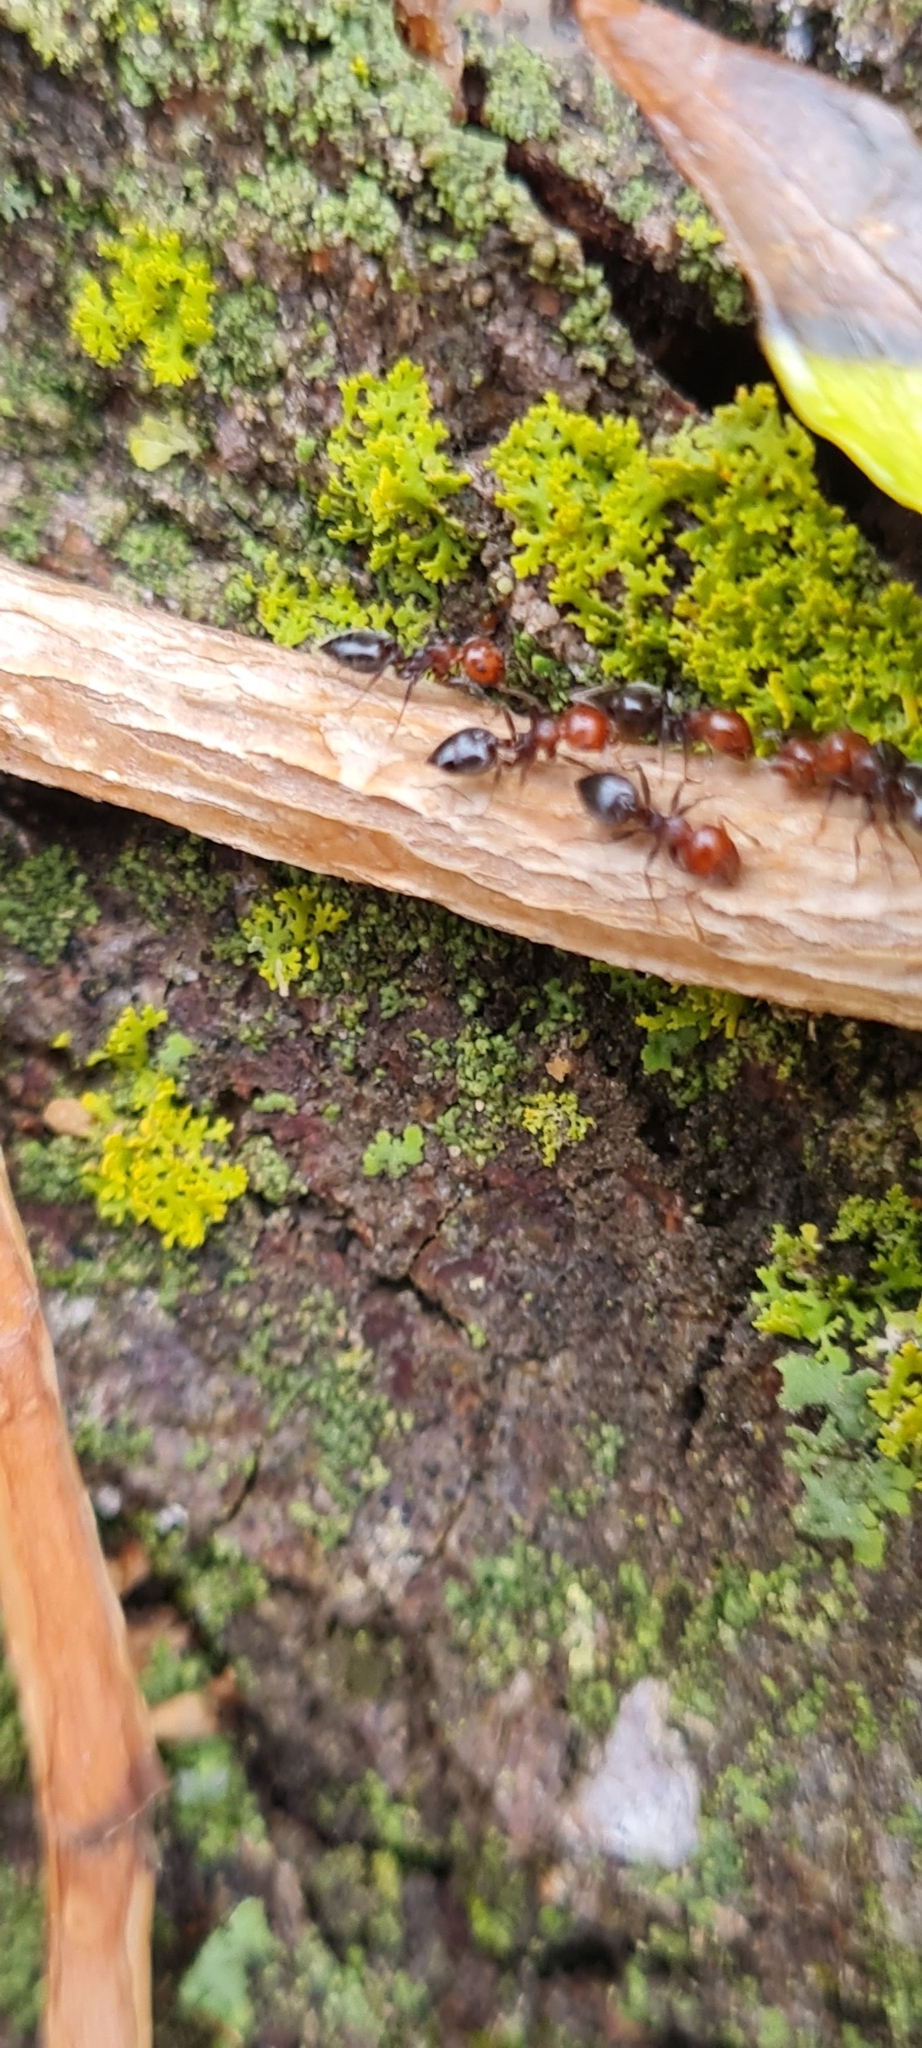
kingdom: Animalia
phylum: Arthropoda
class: Insecta
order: Hymenoptera
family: Formicidae
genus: Crematogaster
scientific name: Crematogaster scutellaris
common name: Fourmi du liège
